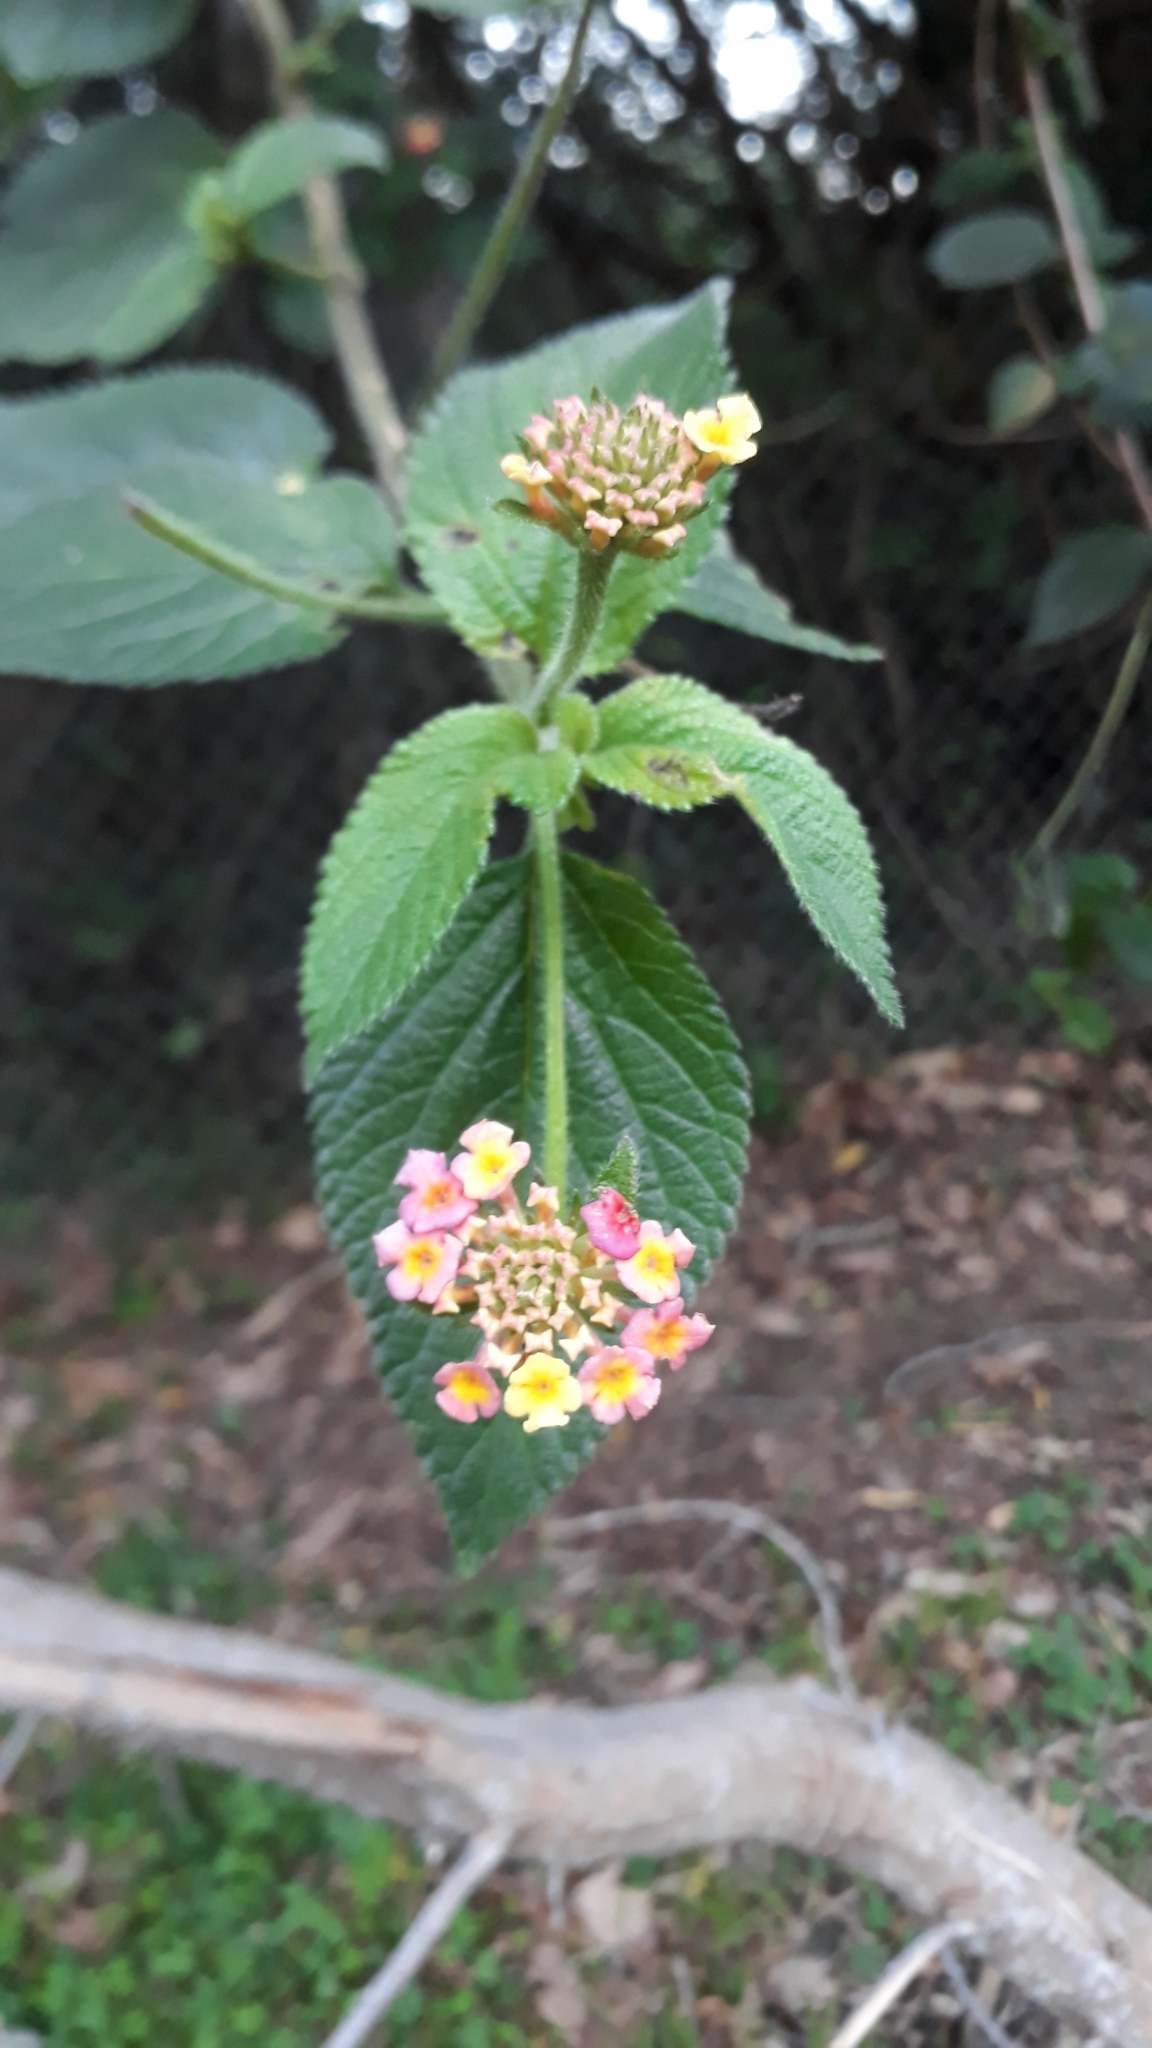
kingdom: Plantae
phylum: Tracheophyta
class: Magnoliopsida
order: Lamiales
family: Verbenaceae
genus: Lantana
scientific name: Lantana camara
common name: Lantana
